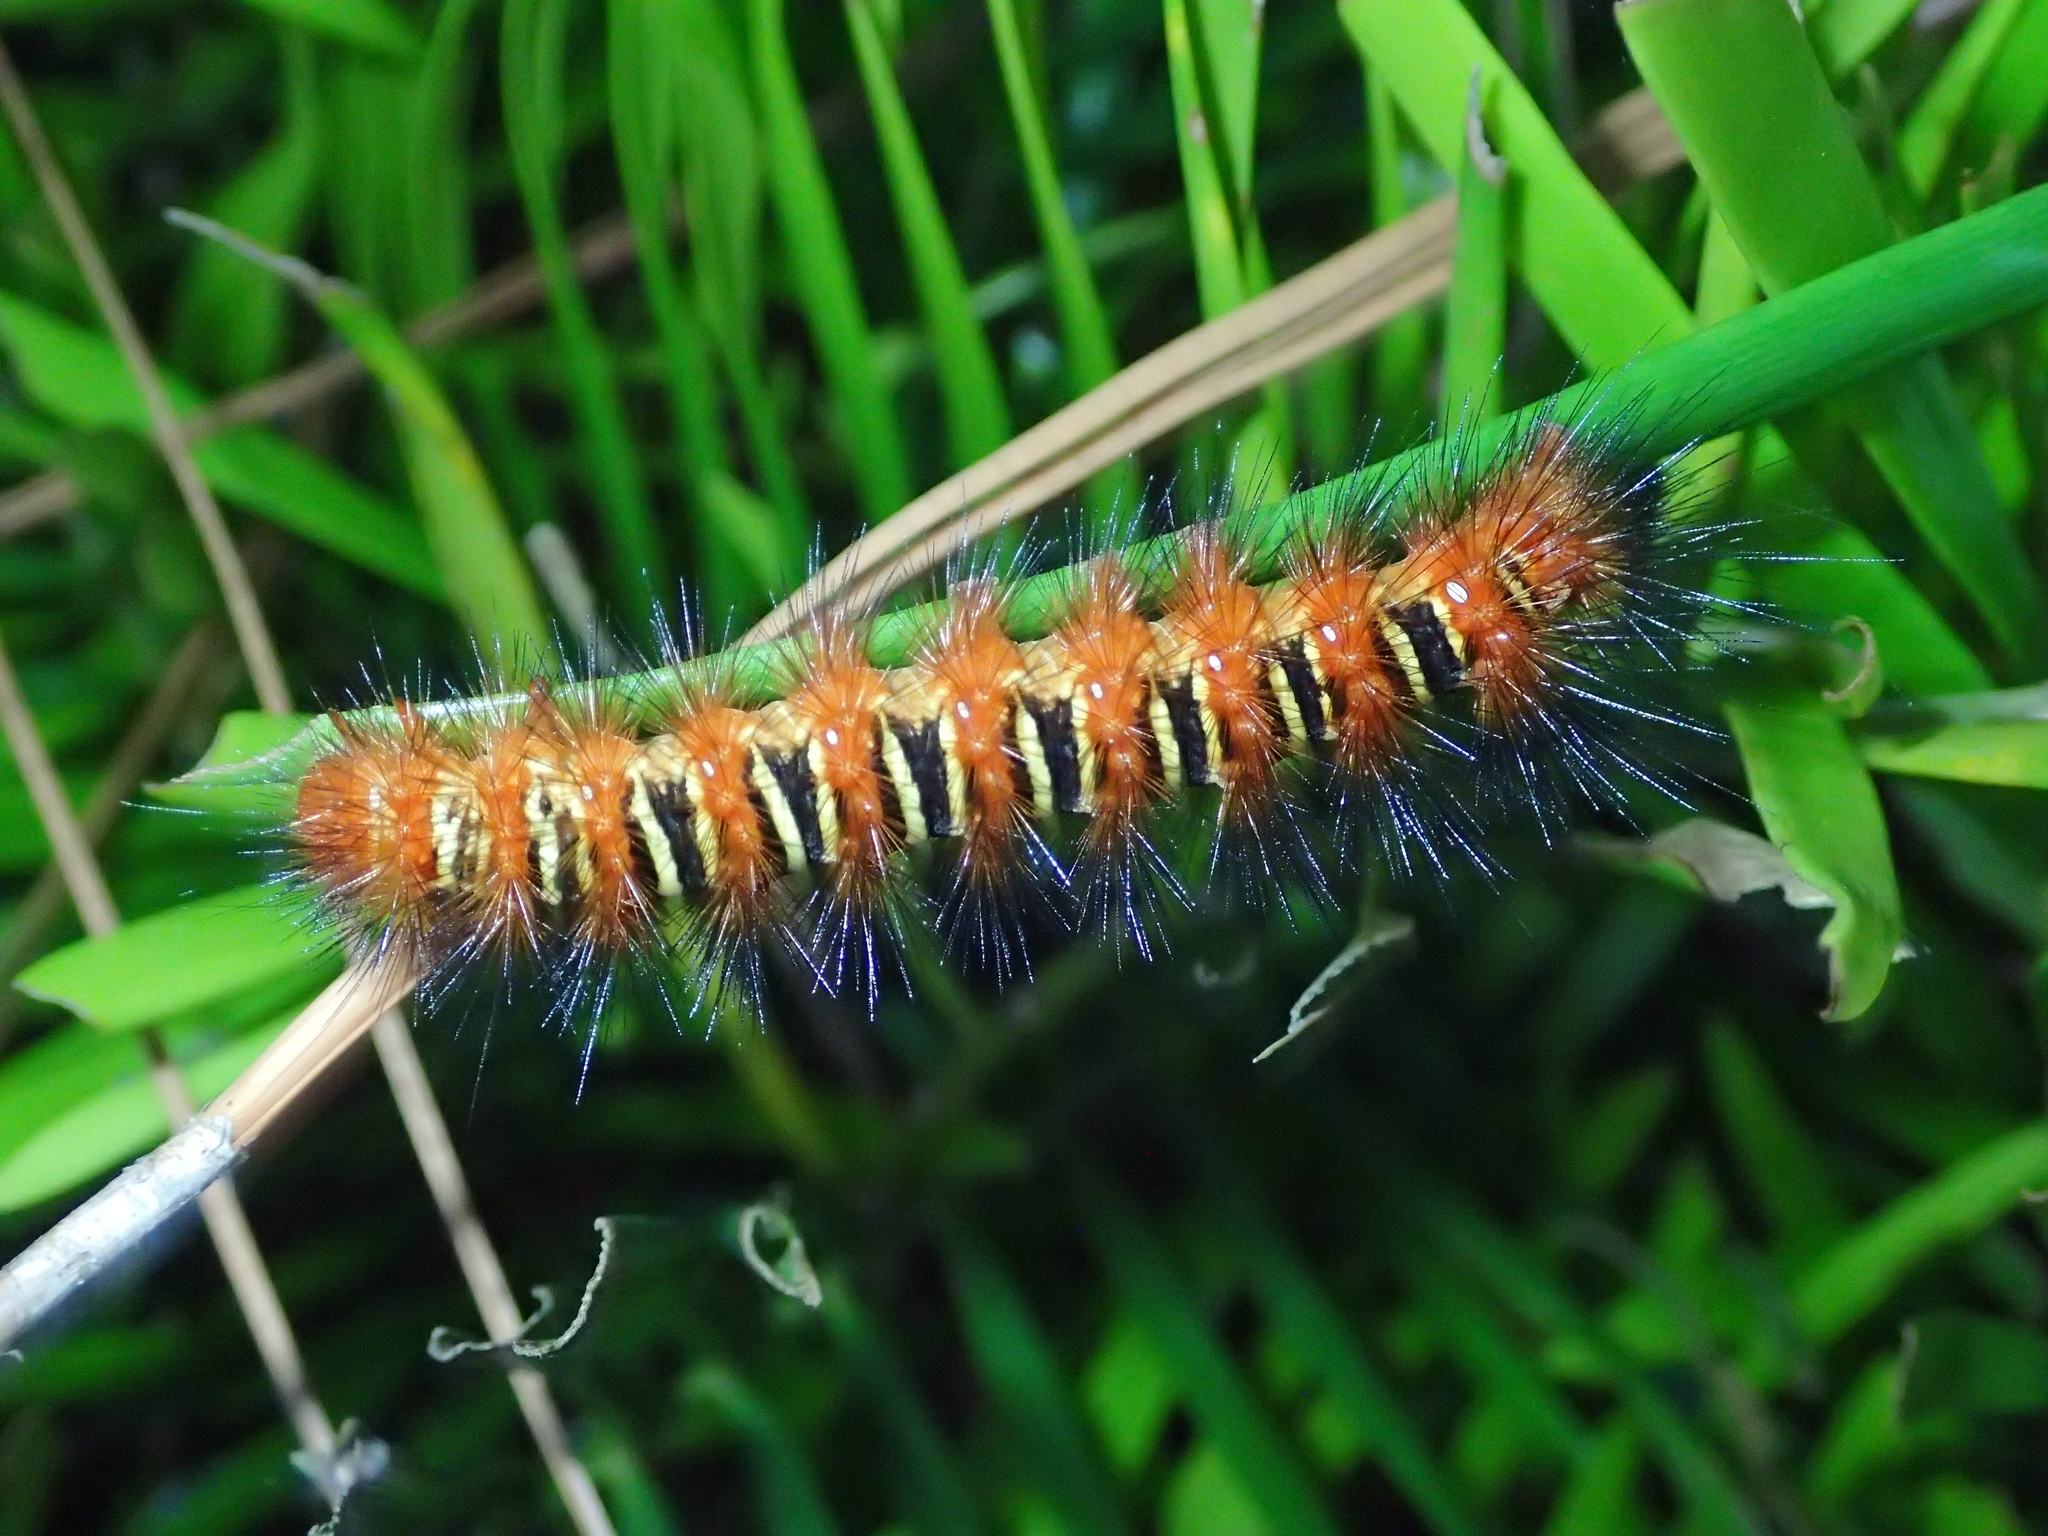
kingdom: Animalia
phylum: Arthropoda
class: Insecta
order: Lepidoptera
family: Erebidae
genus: Seirarctia
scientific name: Seirarctia echo
